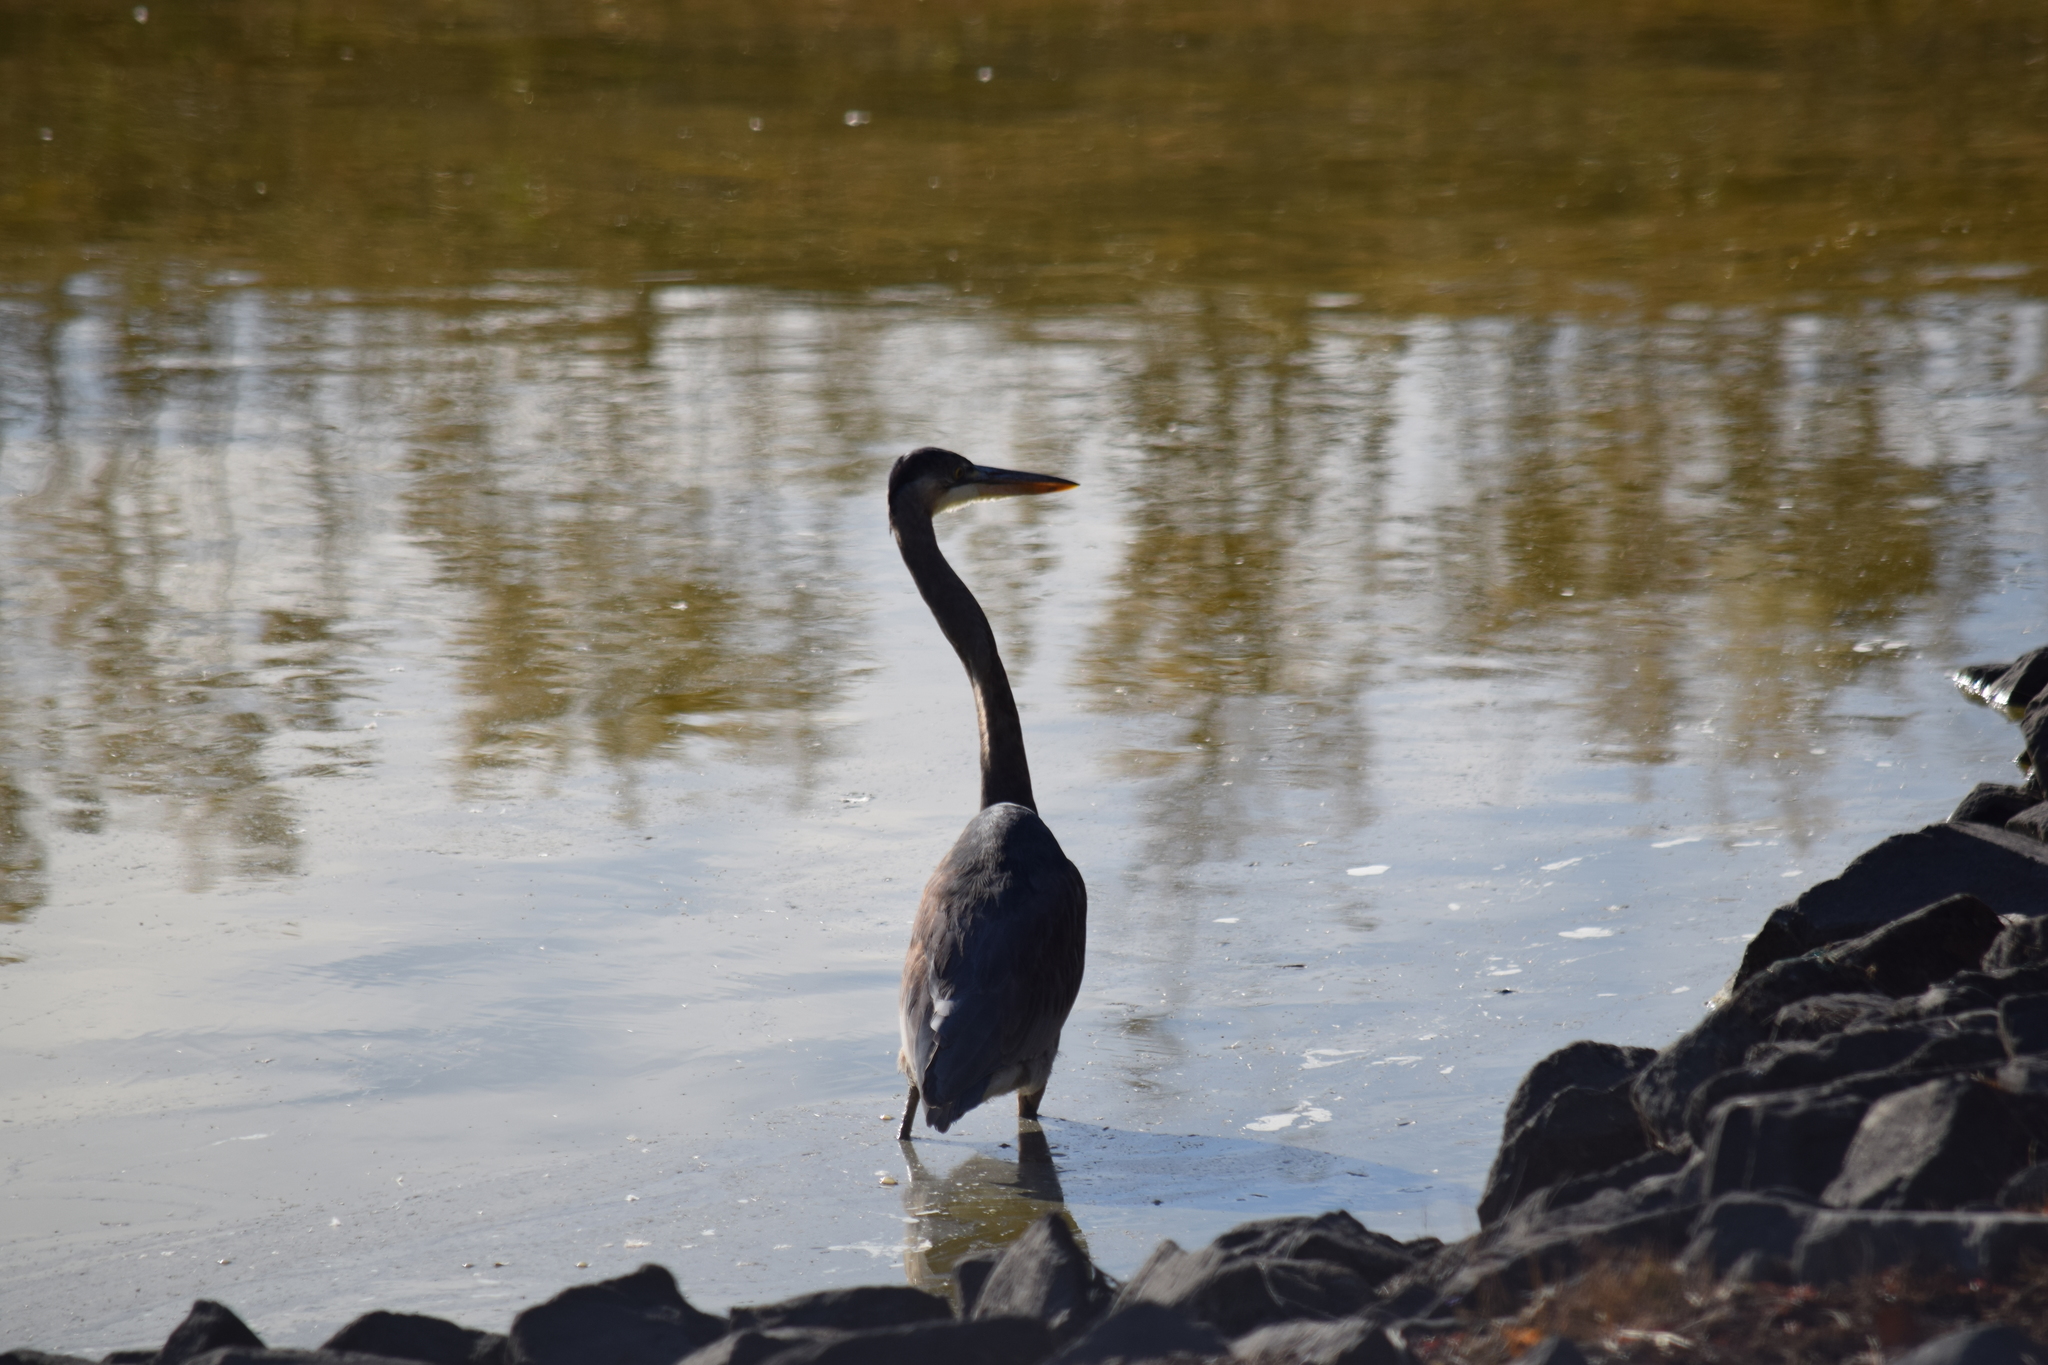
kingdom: Animalia
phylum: Chordata
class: Aves
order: Pelecaniformes
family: Ardeidae
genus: Ardea
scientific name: Ardea herodias
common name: Great blue heron
